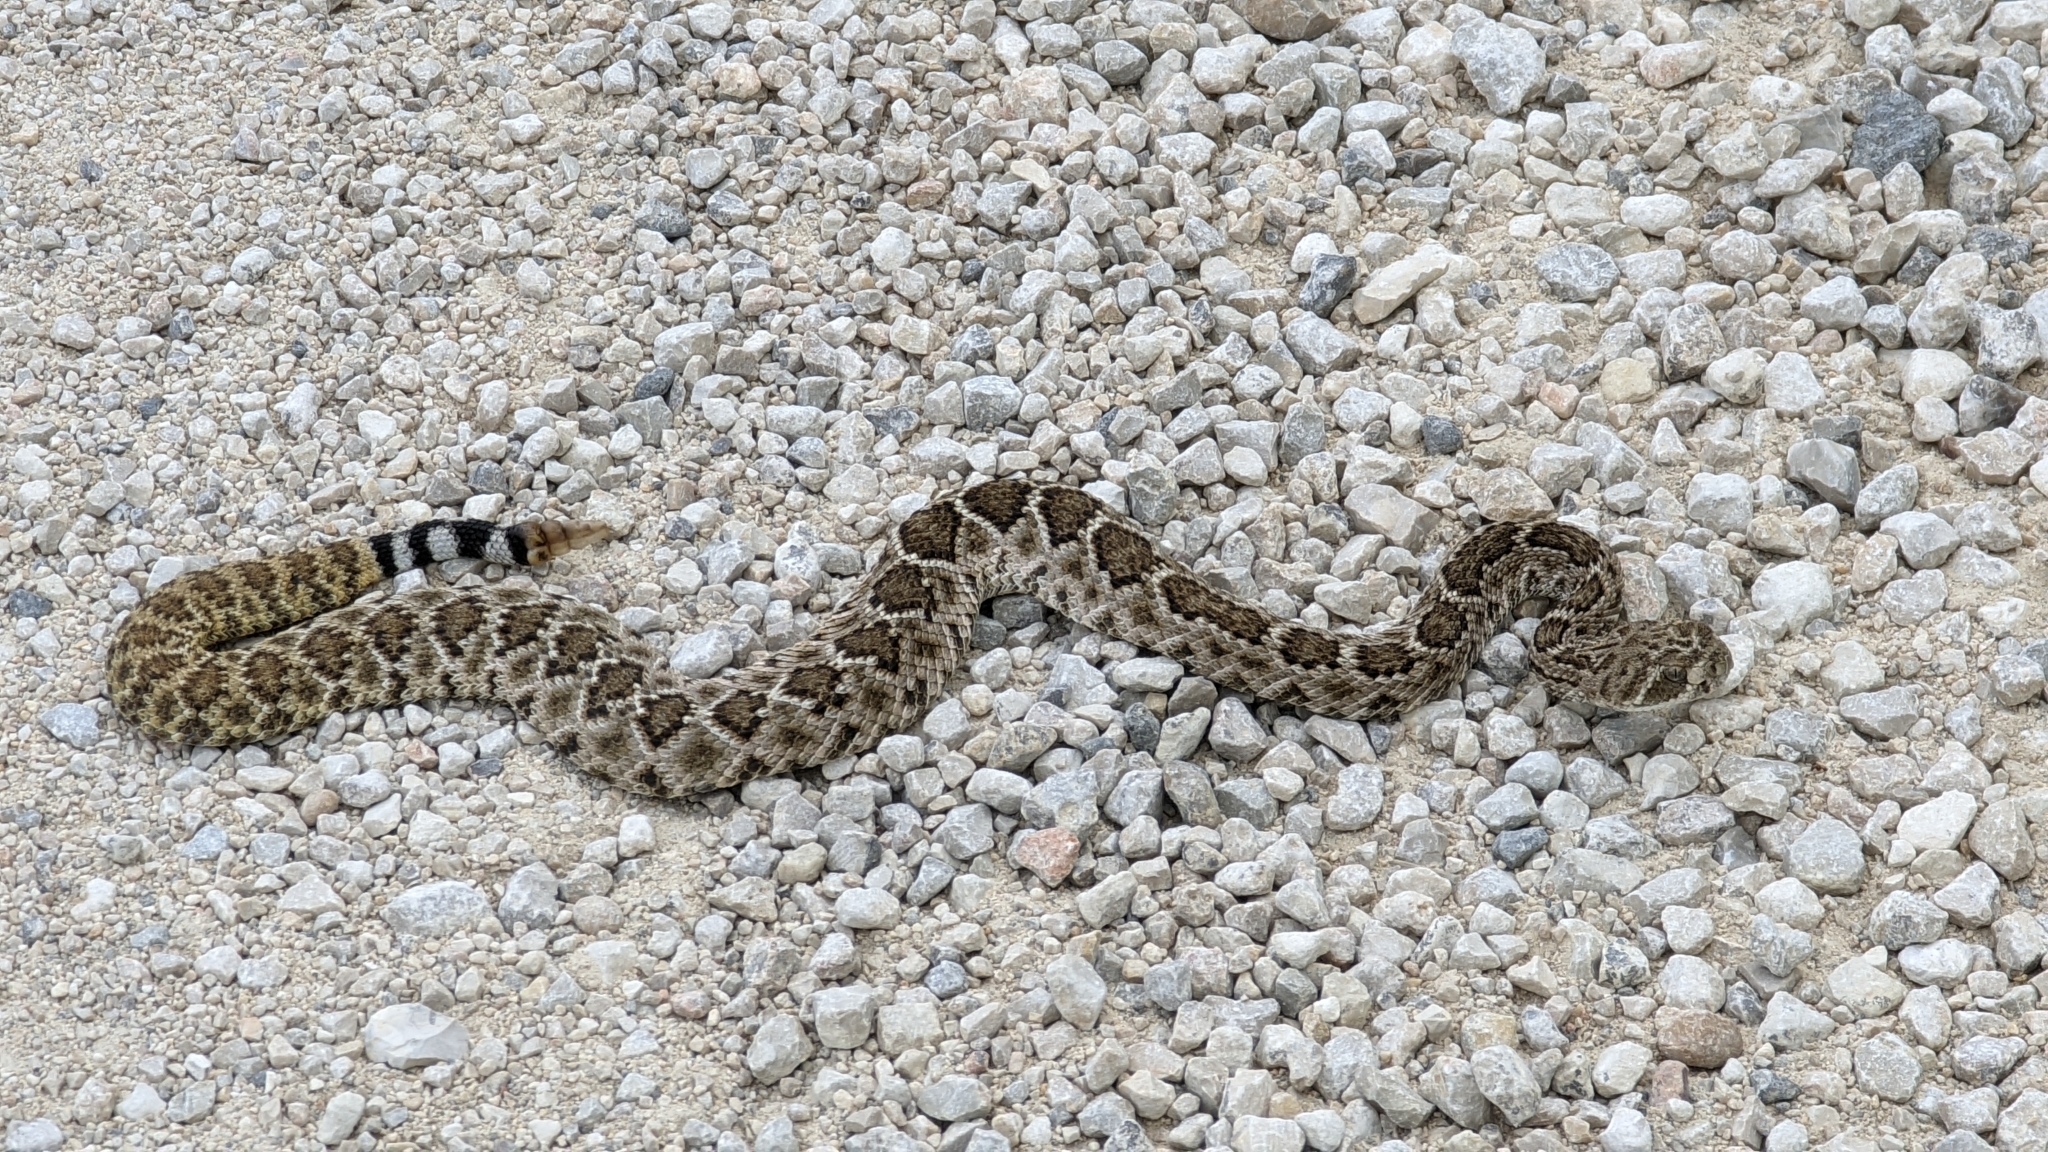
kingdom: Animalia
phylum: Chordata
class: Squamata
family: Viperidae
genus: Crotalus
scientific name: Crotalus atrox
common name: Western diamond-backed rattlesnake
